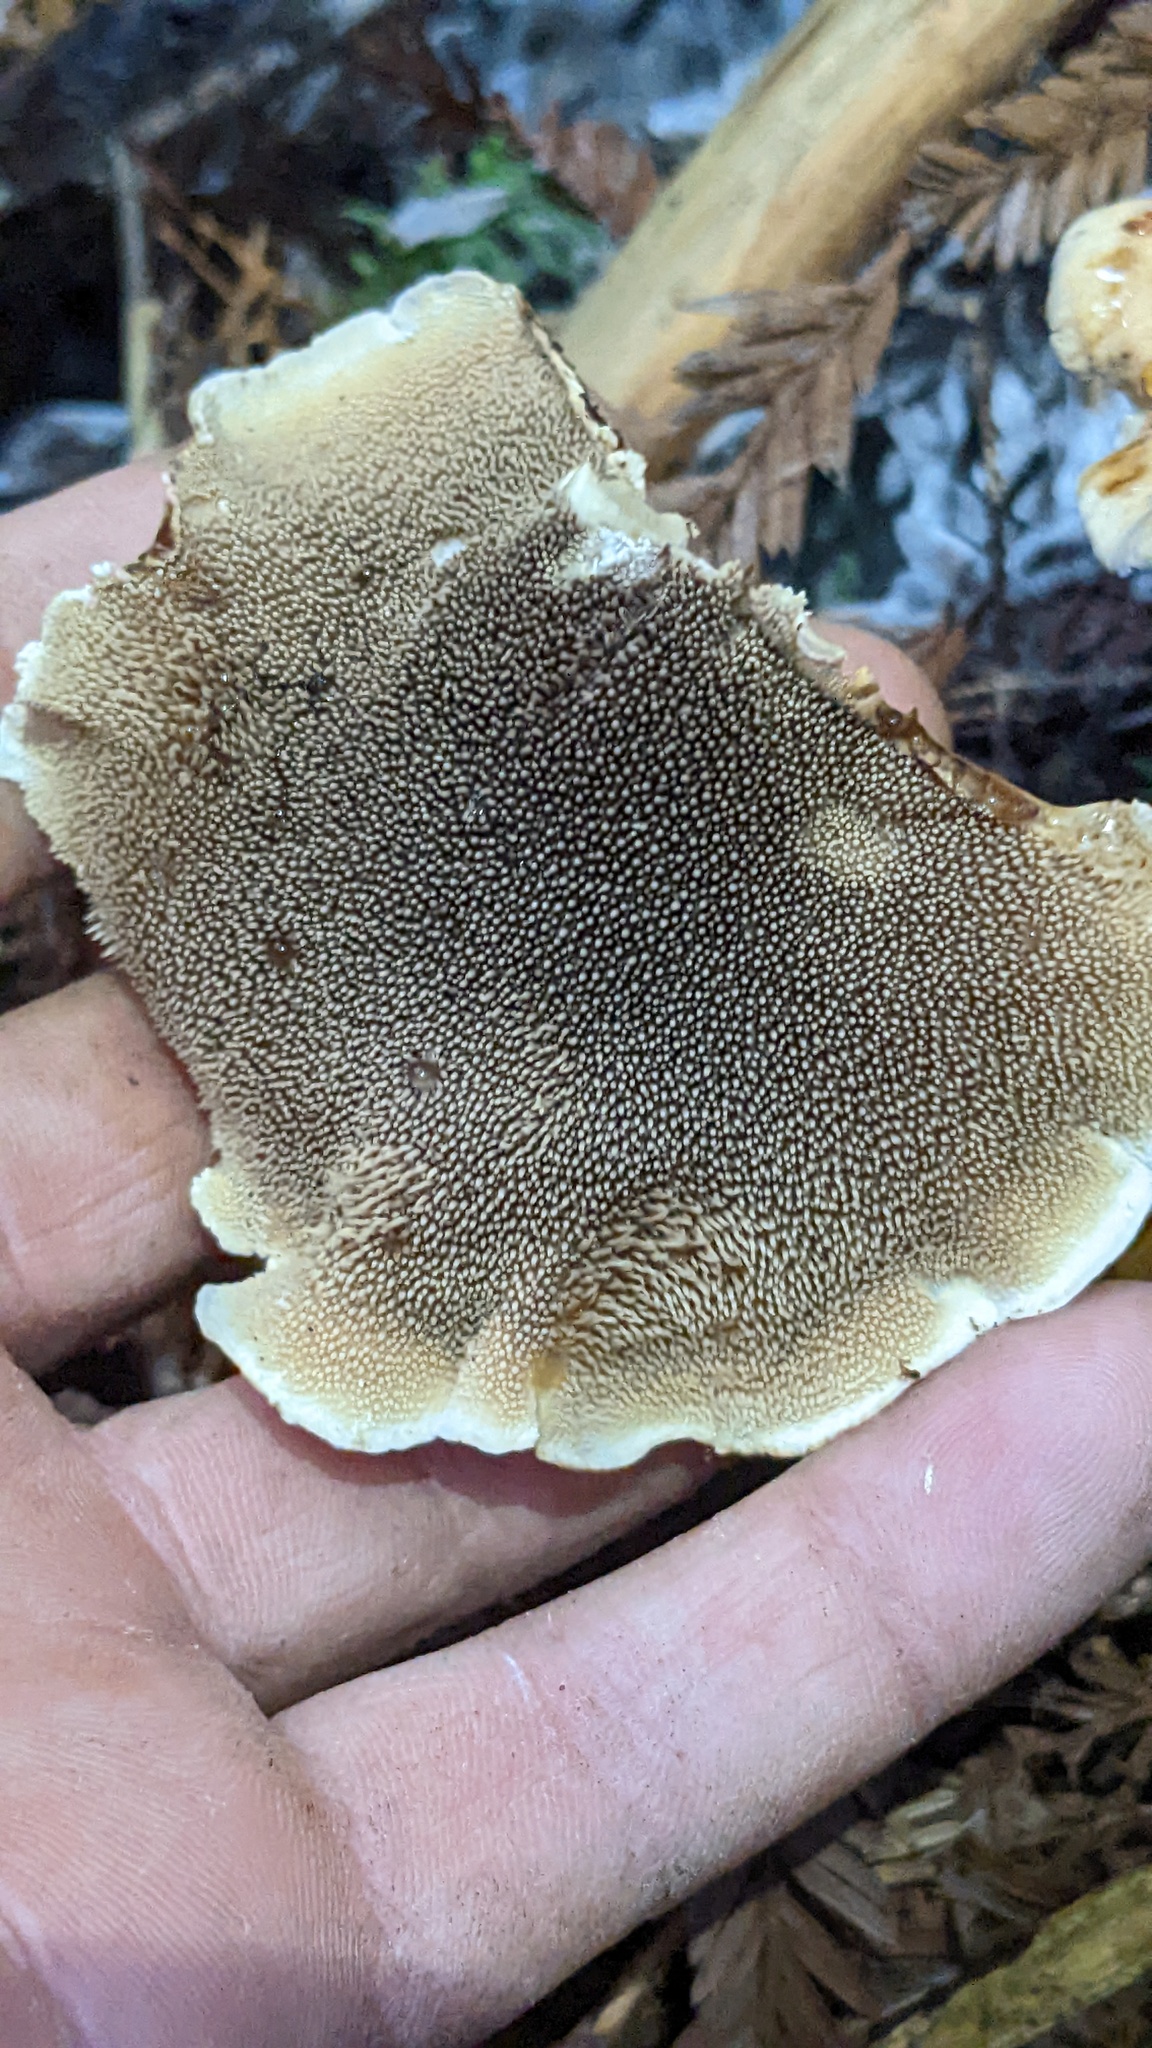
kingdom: Fungi
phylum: Basidiomycota
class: Agaricomycetes
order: Thelephorales
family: Bankeraceae
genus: Sarcodon
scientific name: Sarcodon stereosarcinon
